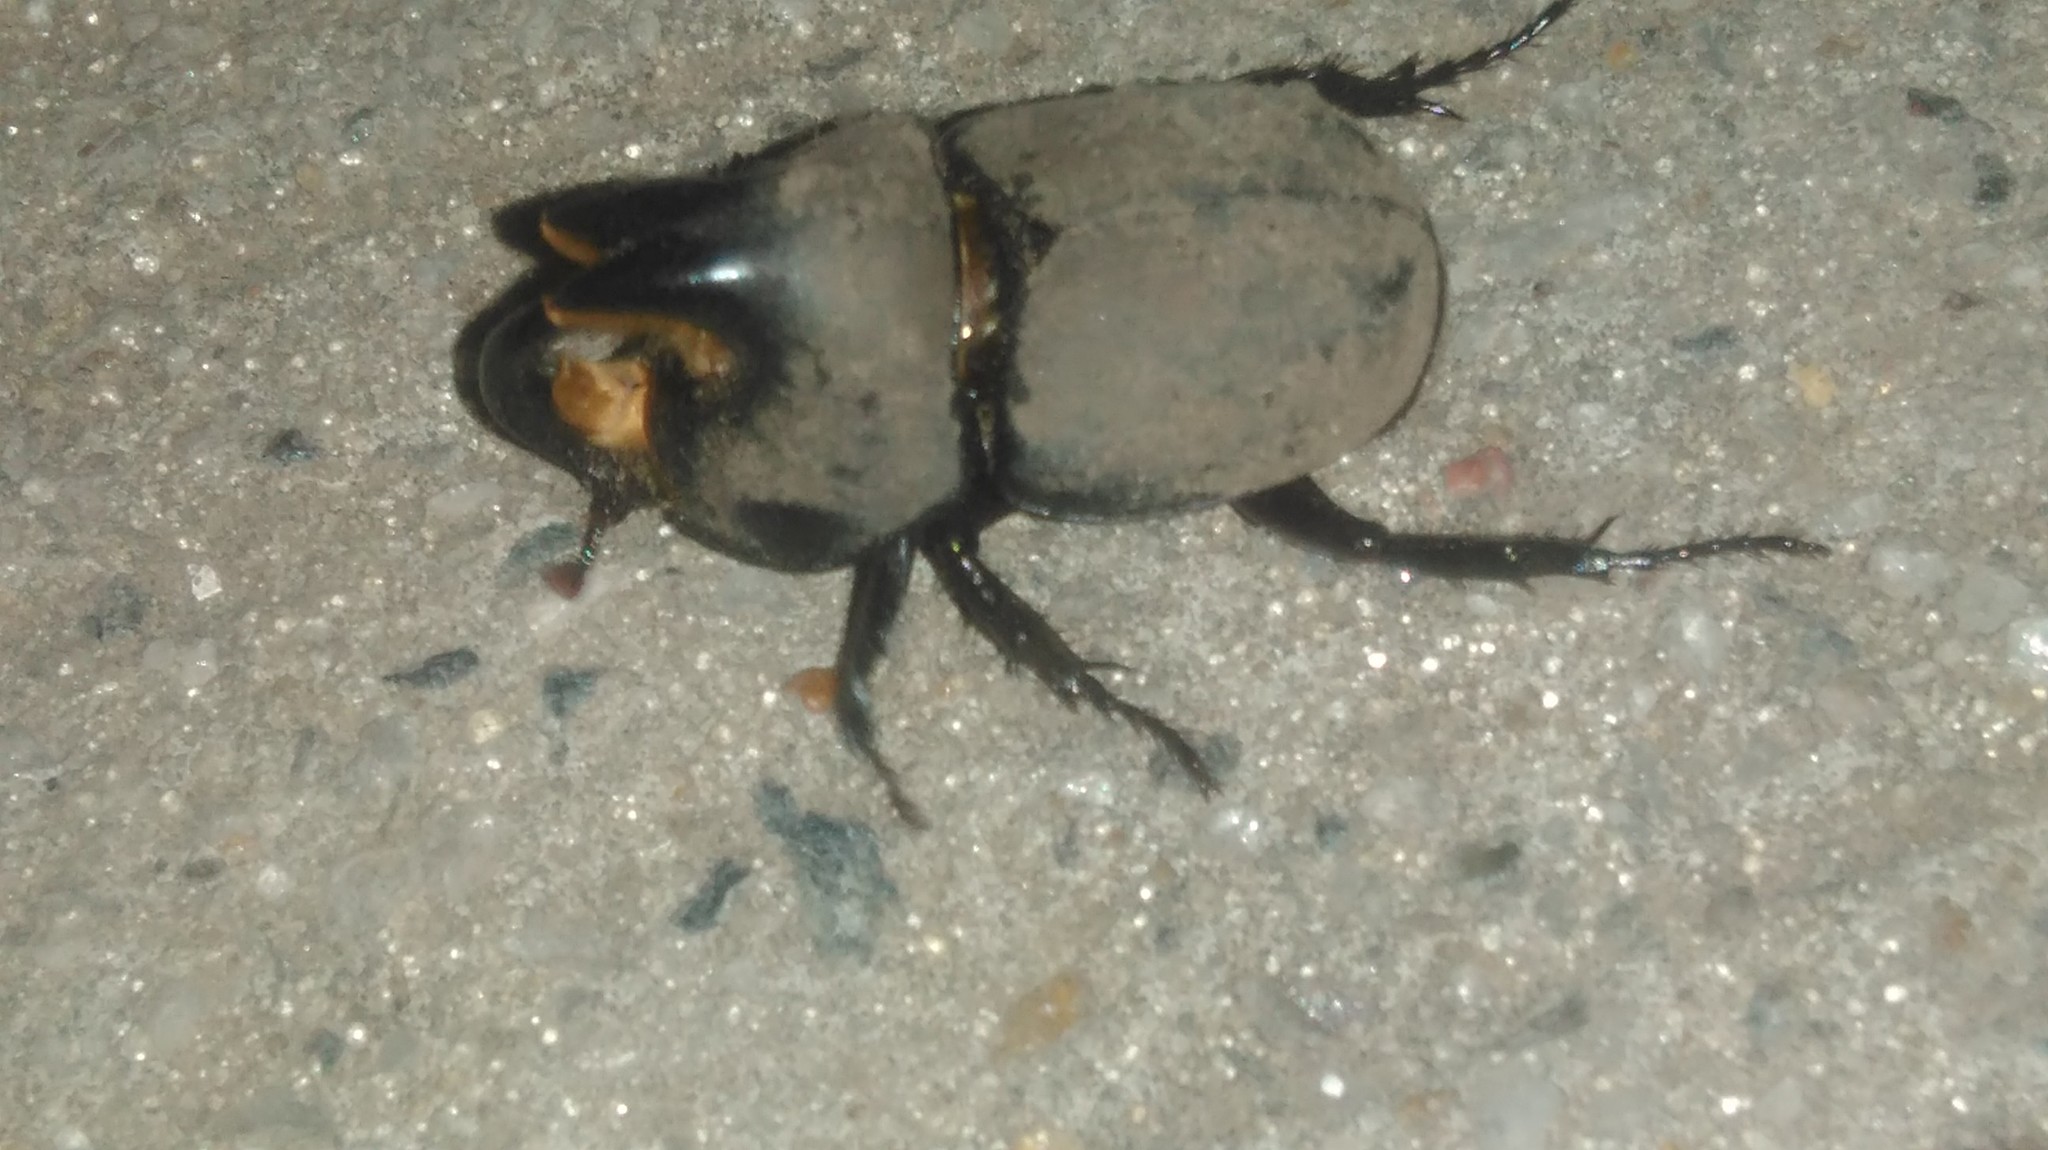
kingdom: Animalia
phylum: Arthropoda
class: Insecta
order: Coleoptera
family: Scarabaeidae
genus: Diloboderus
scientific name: Diloboderus abderus
